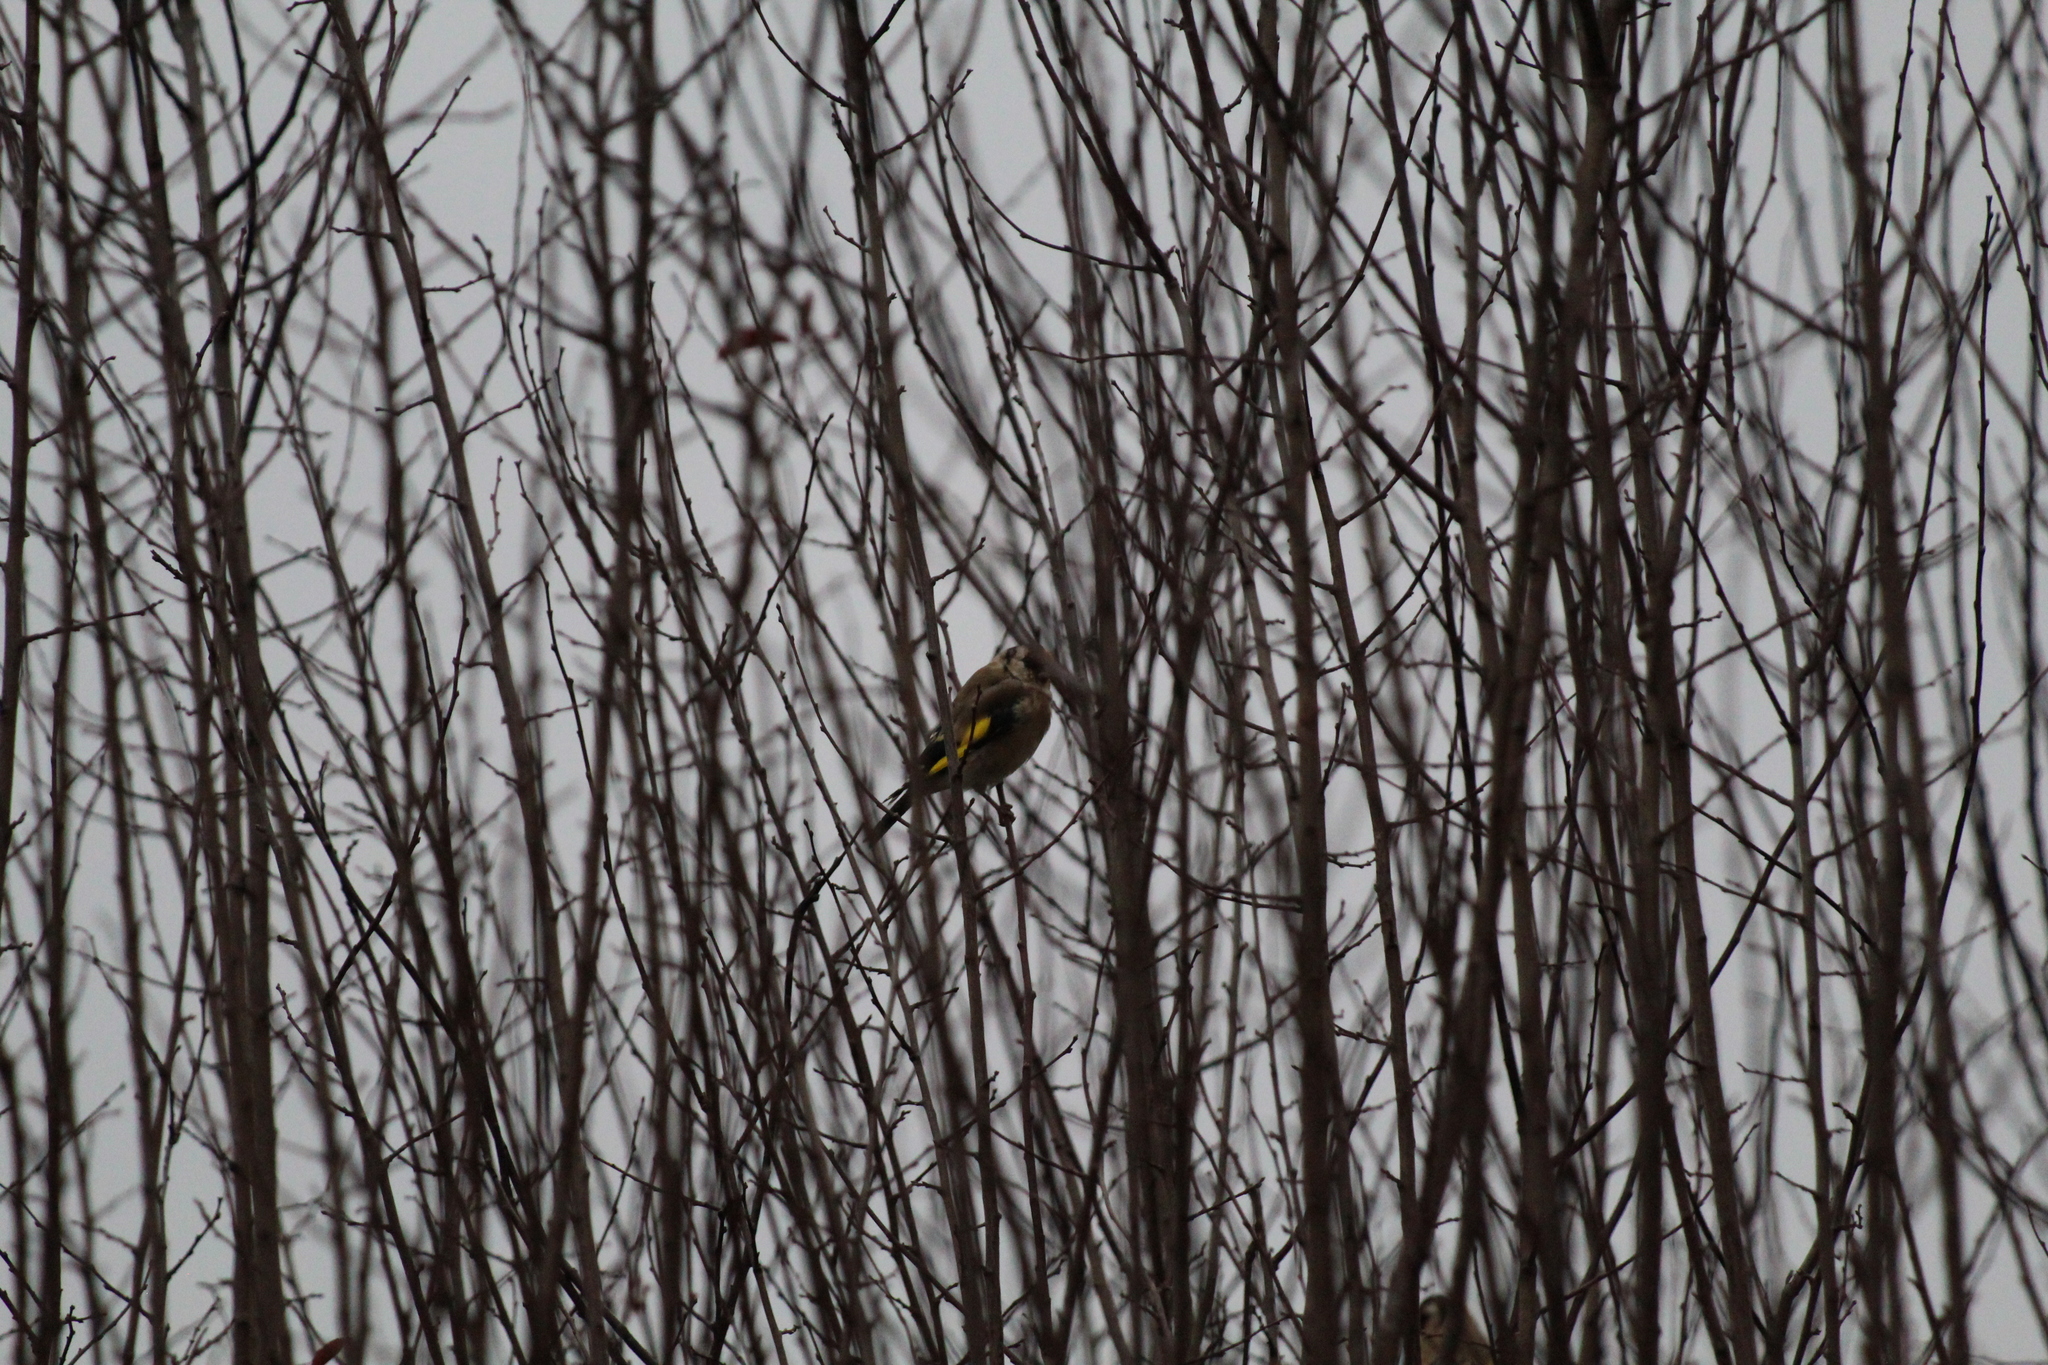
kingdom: Animalia
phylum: Chordata
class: Aves
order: Passeriformes
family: Fringillidae
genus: Carduelis
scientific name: Carduelis carduelis
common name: European goldfinch
